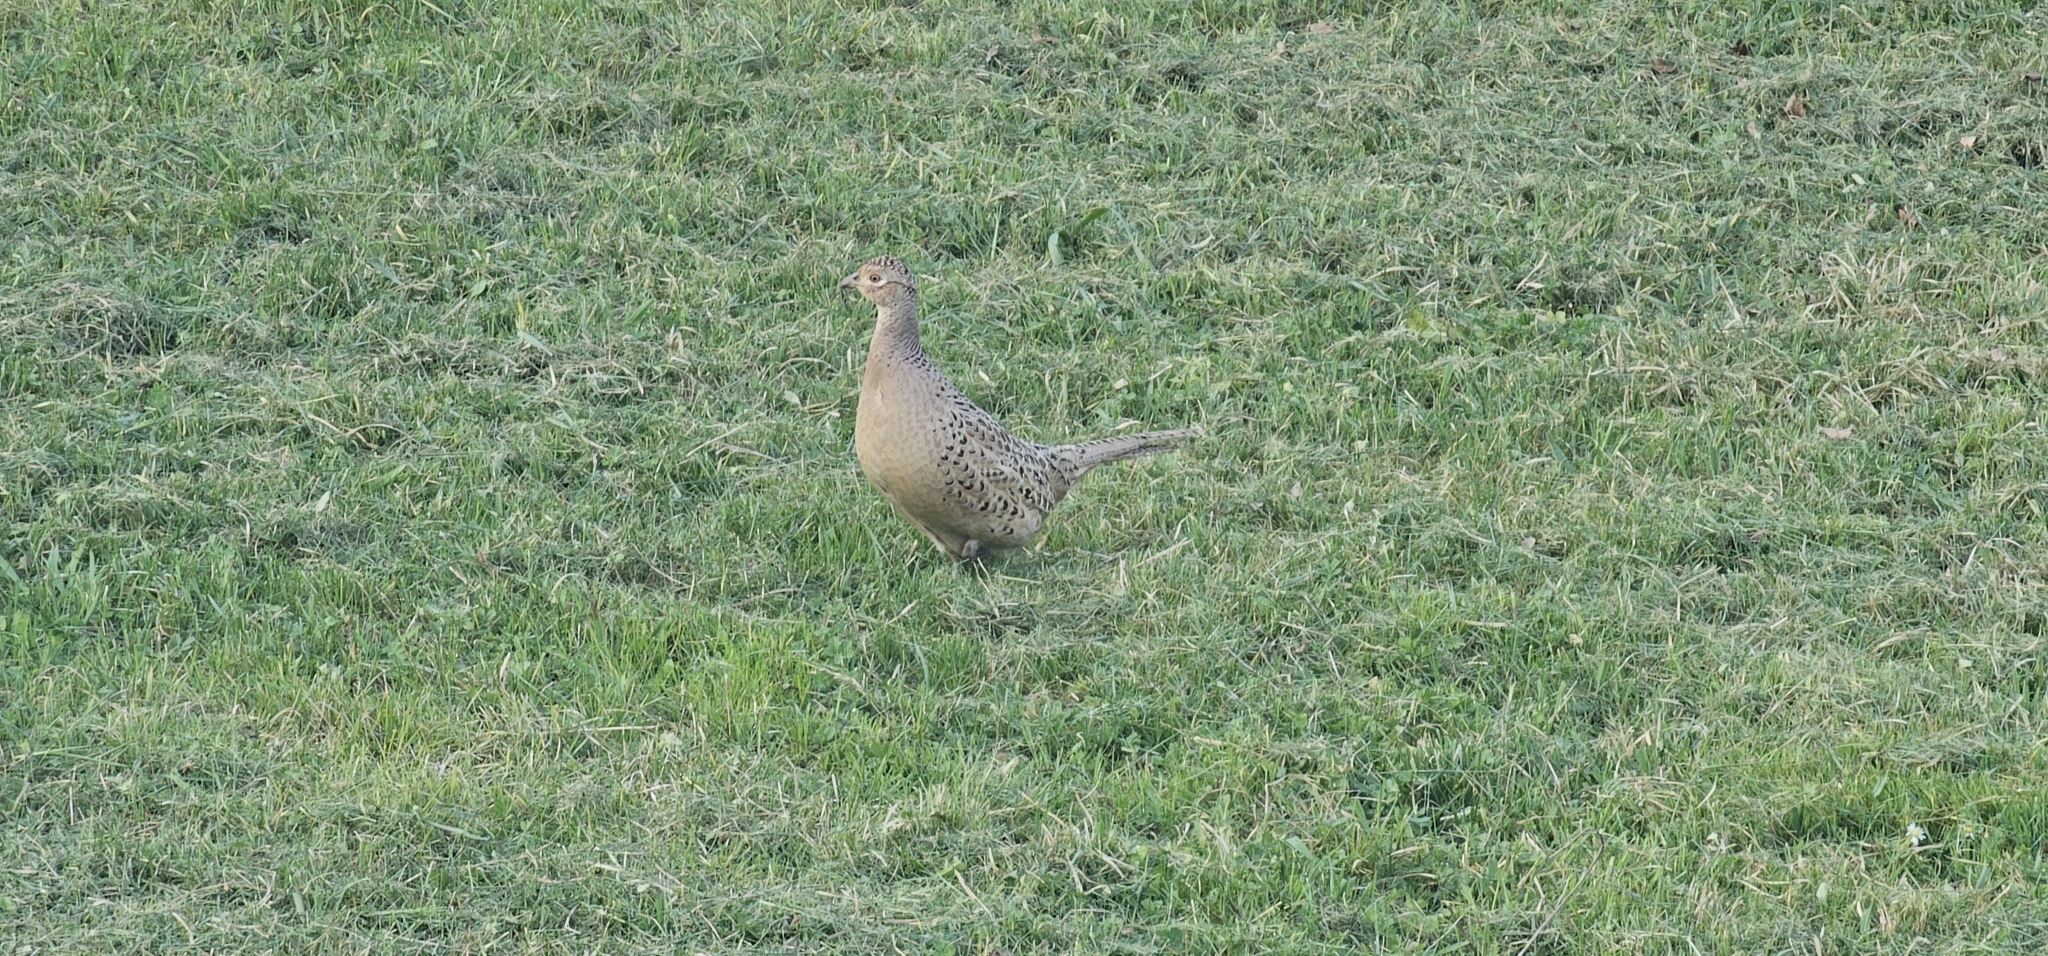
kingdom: Animalia
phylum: Chordata
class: Aves
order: Galliformes
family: Phasianidae
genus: Phasianus
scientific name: Phasianus colchicus
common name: Common pheasant
